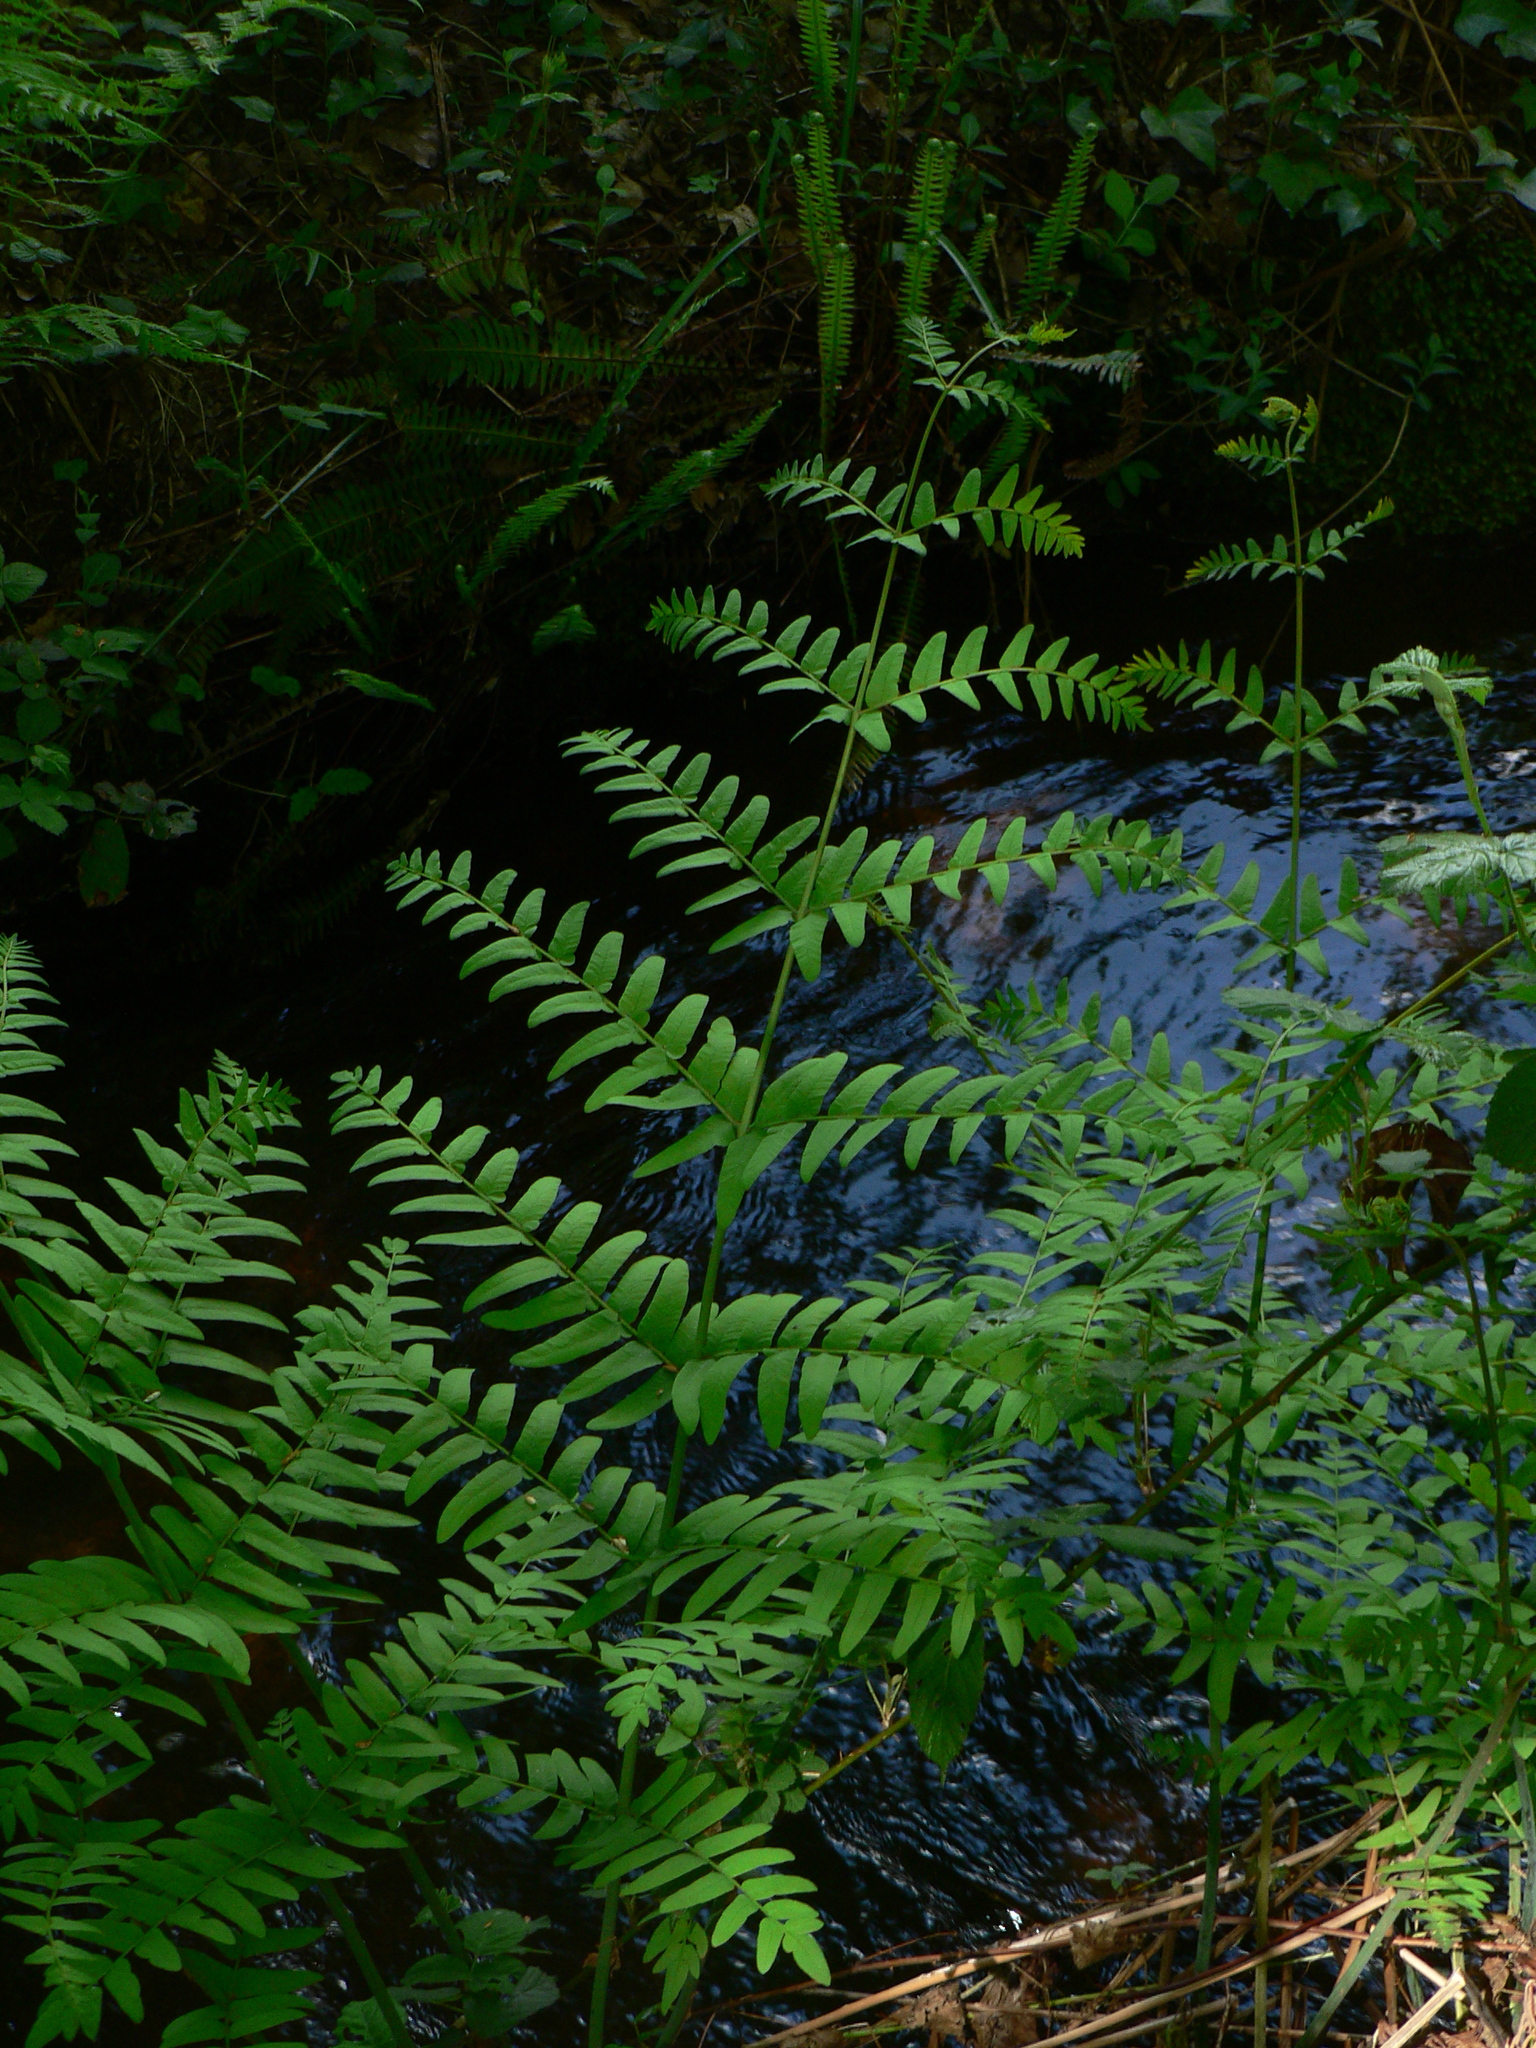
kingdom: Plantae
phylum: Tracheophyta
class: Polypodiopsida
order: Osmundales
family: Osmundaceae
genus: Osmunda
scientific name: Osmunda regalis
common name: Royal fern
